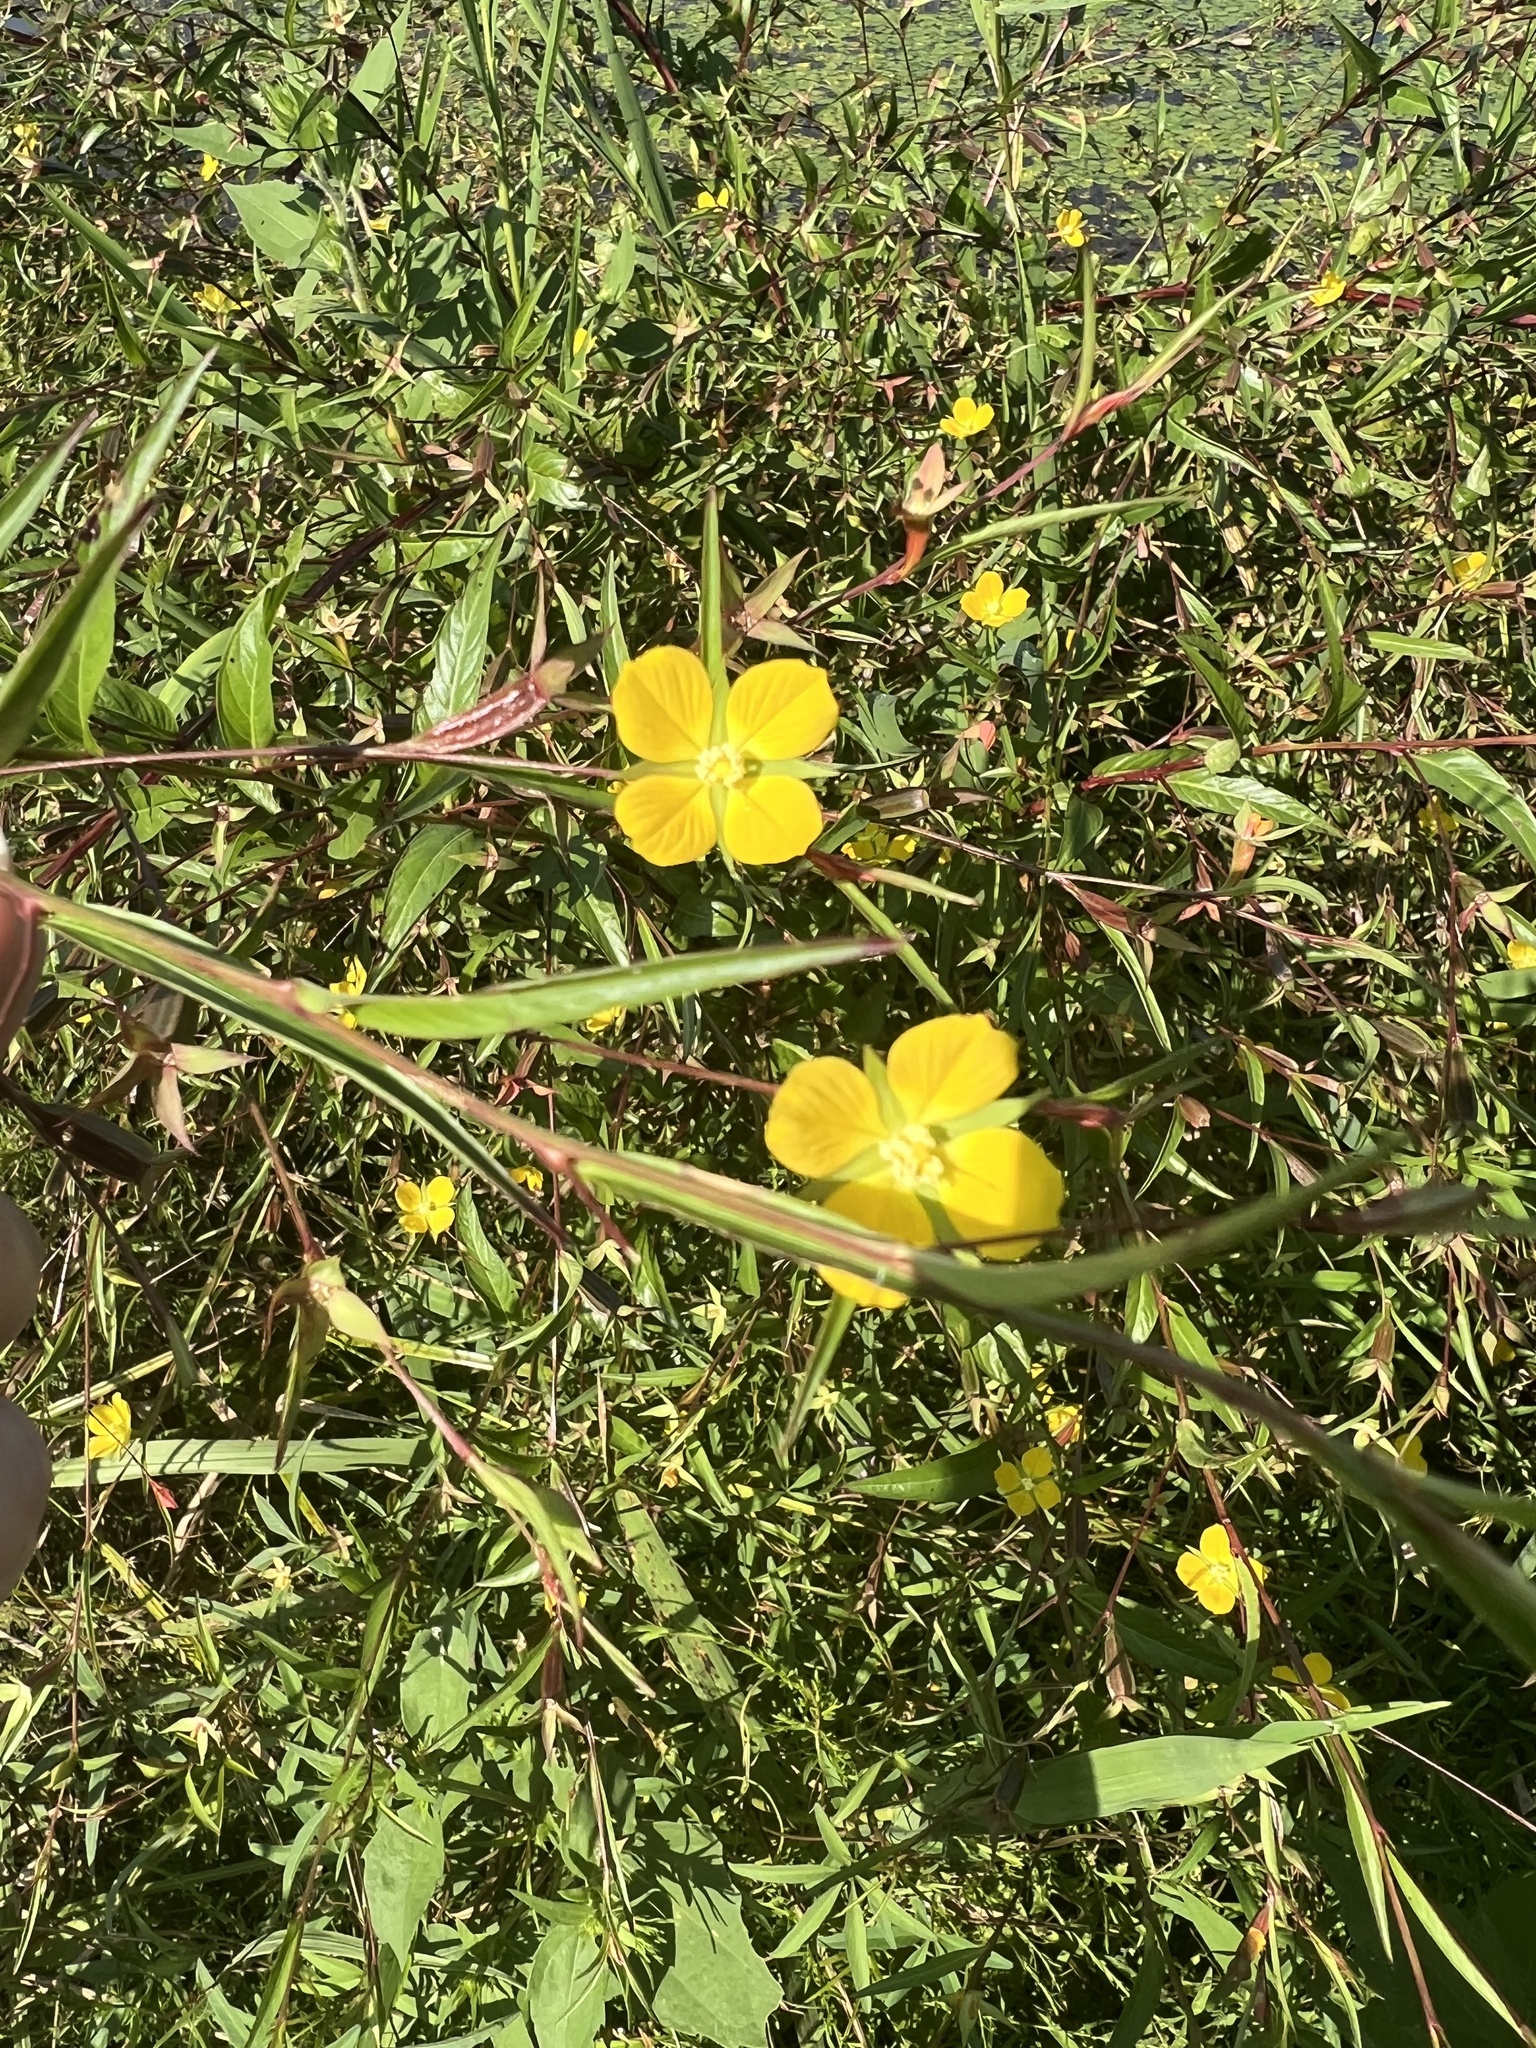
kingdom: Plantae
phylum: Tracheophyta
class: Magnoliopsida
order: Myrtales
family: Onagraceae
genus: Ludwigia
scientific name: Ludwigia decurrens
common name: Winged water-primrose
